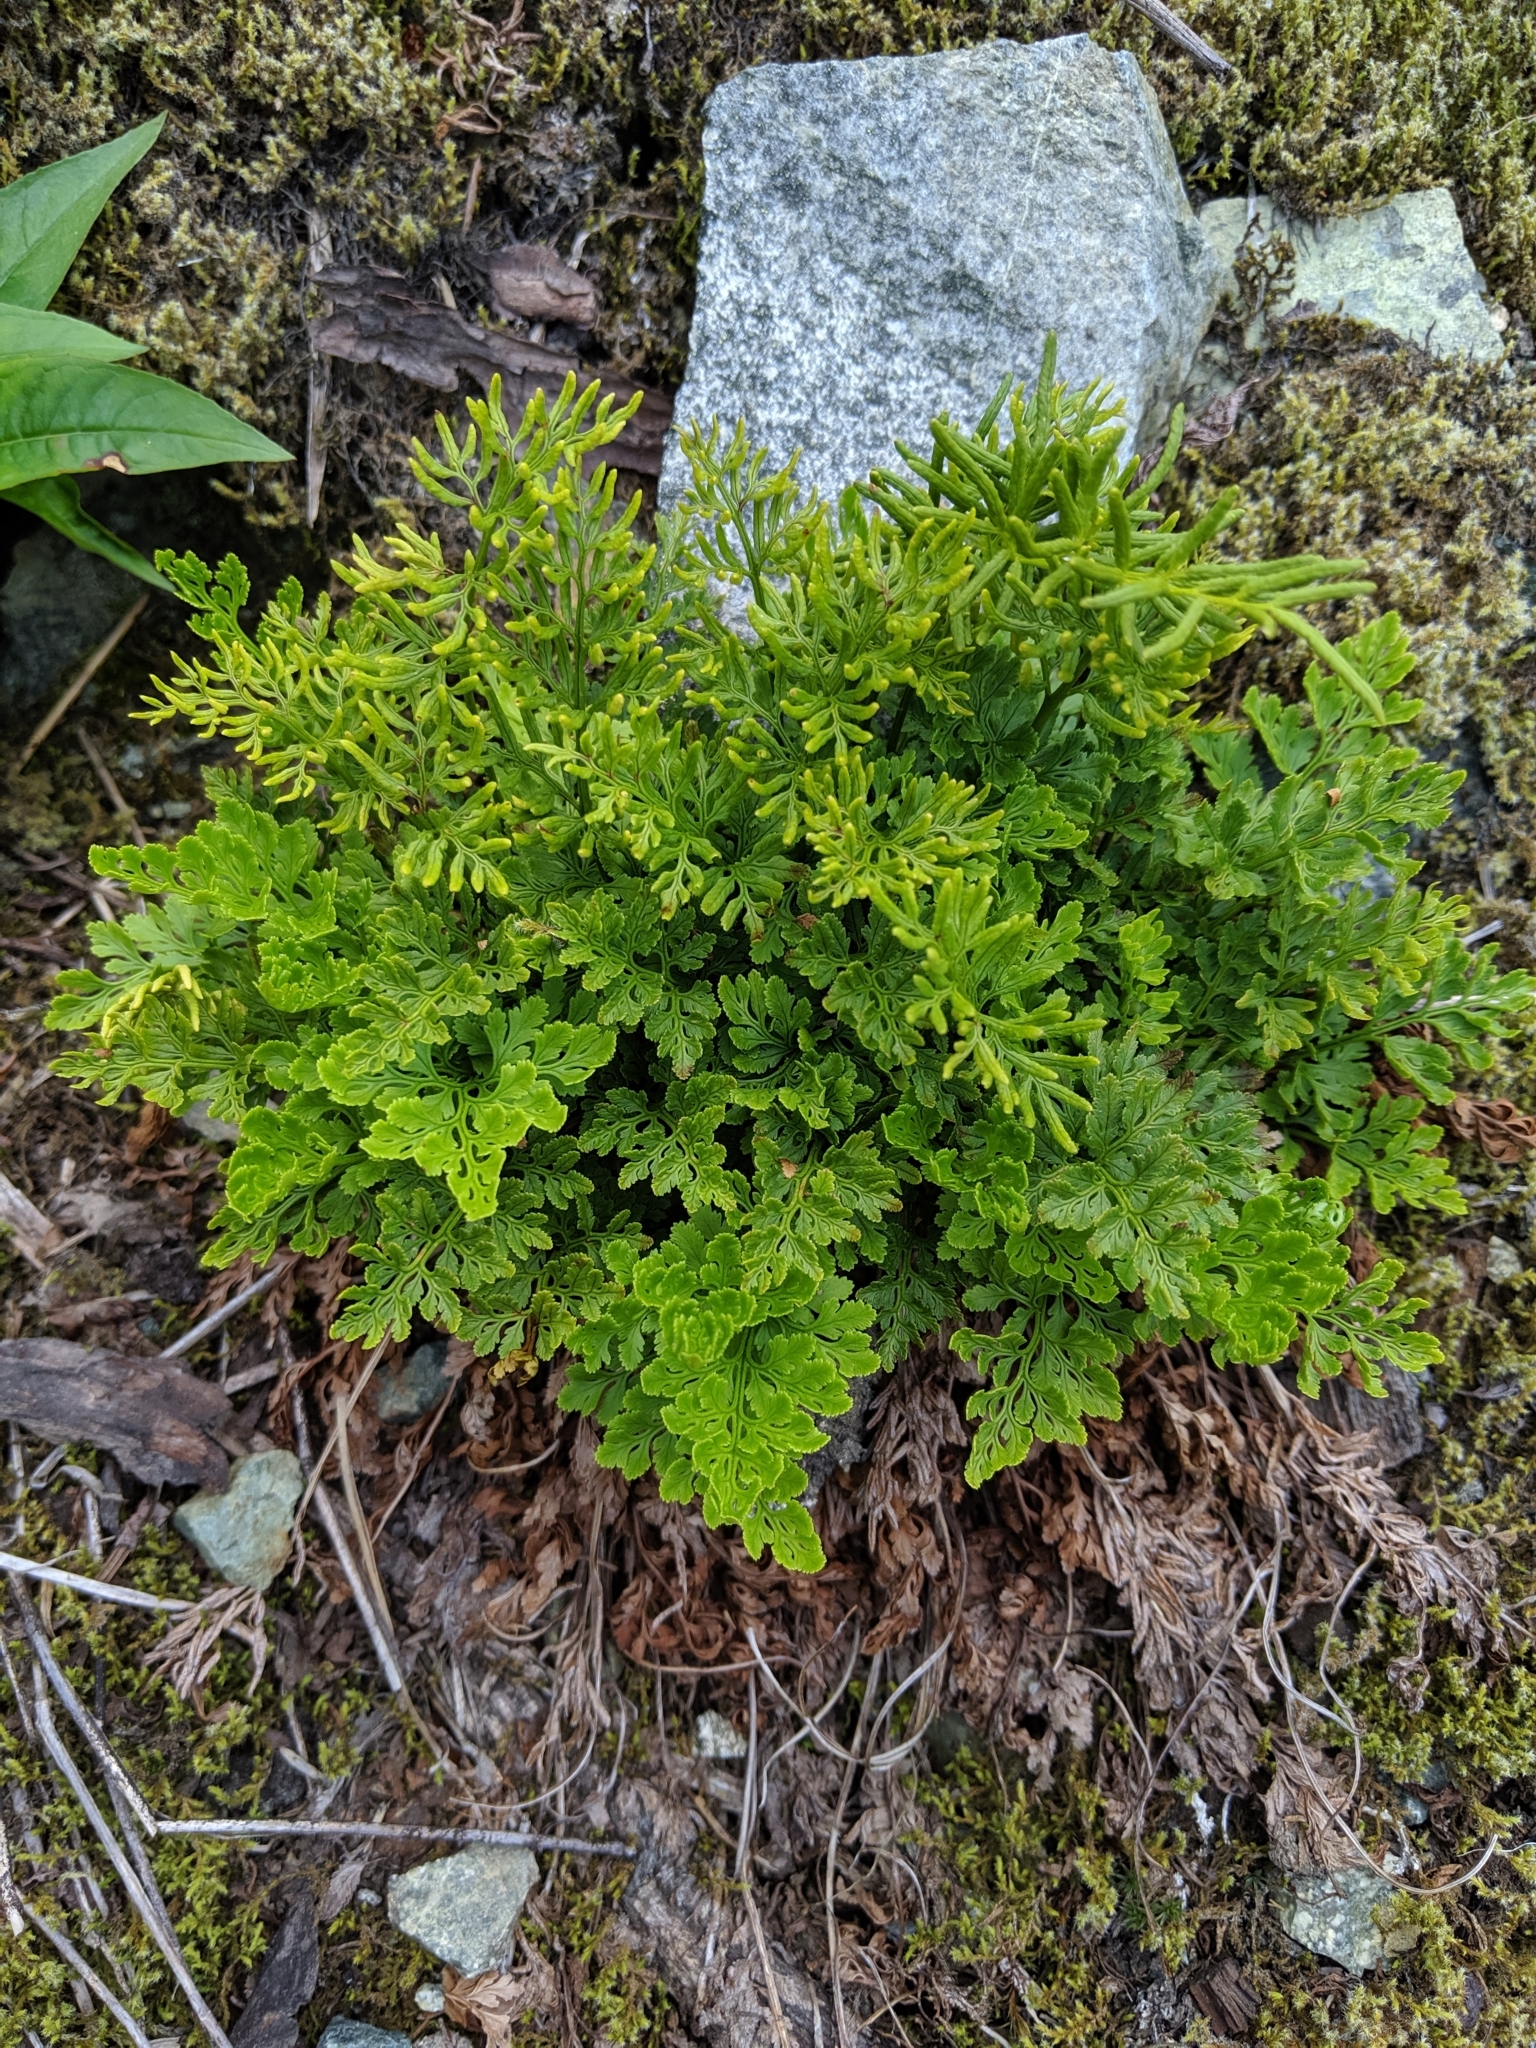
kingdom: Plantae
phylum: Tracheophyta
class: Polypodiopsida
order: Polypodiales
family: Pteridaceae
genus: Cryptogramma
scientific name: Cryptogramma acrostichoides
